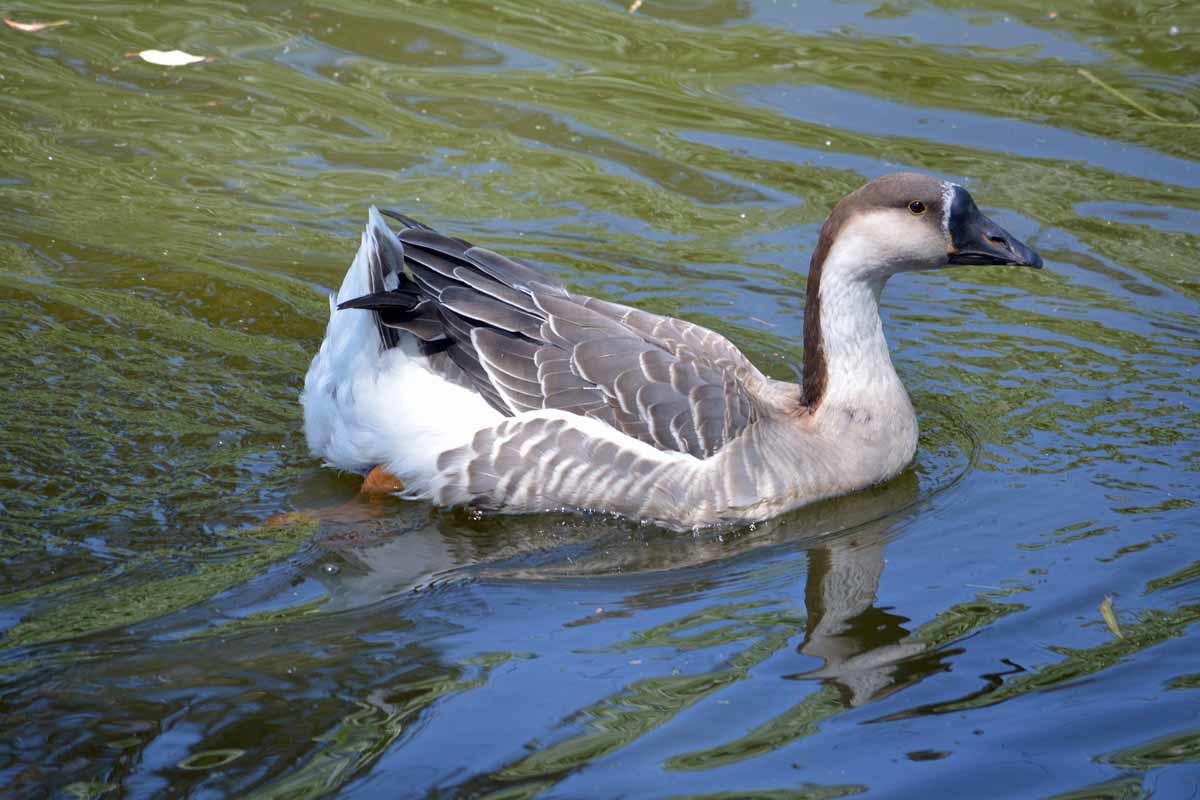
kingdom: Animalia
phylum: Chordata
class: Aves
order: Anseriformes
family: Anatidae
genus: Anser
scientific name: Anser cygnoides
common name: Swan goose
